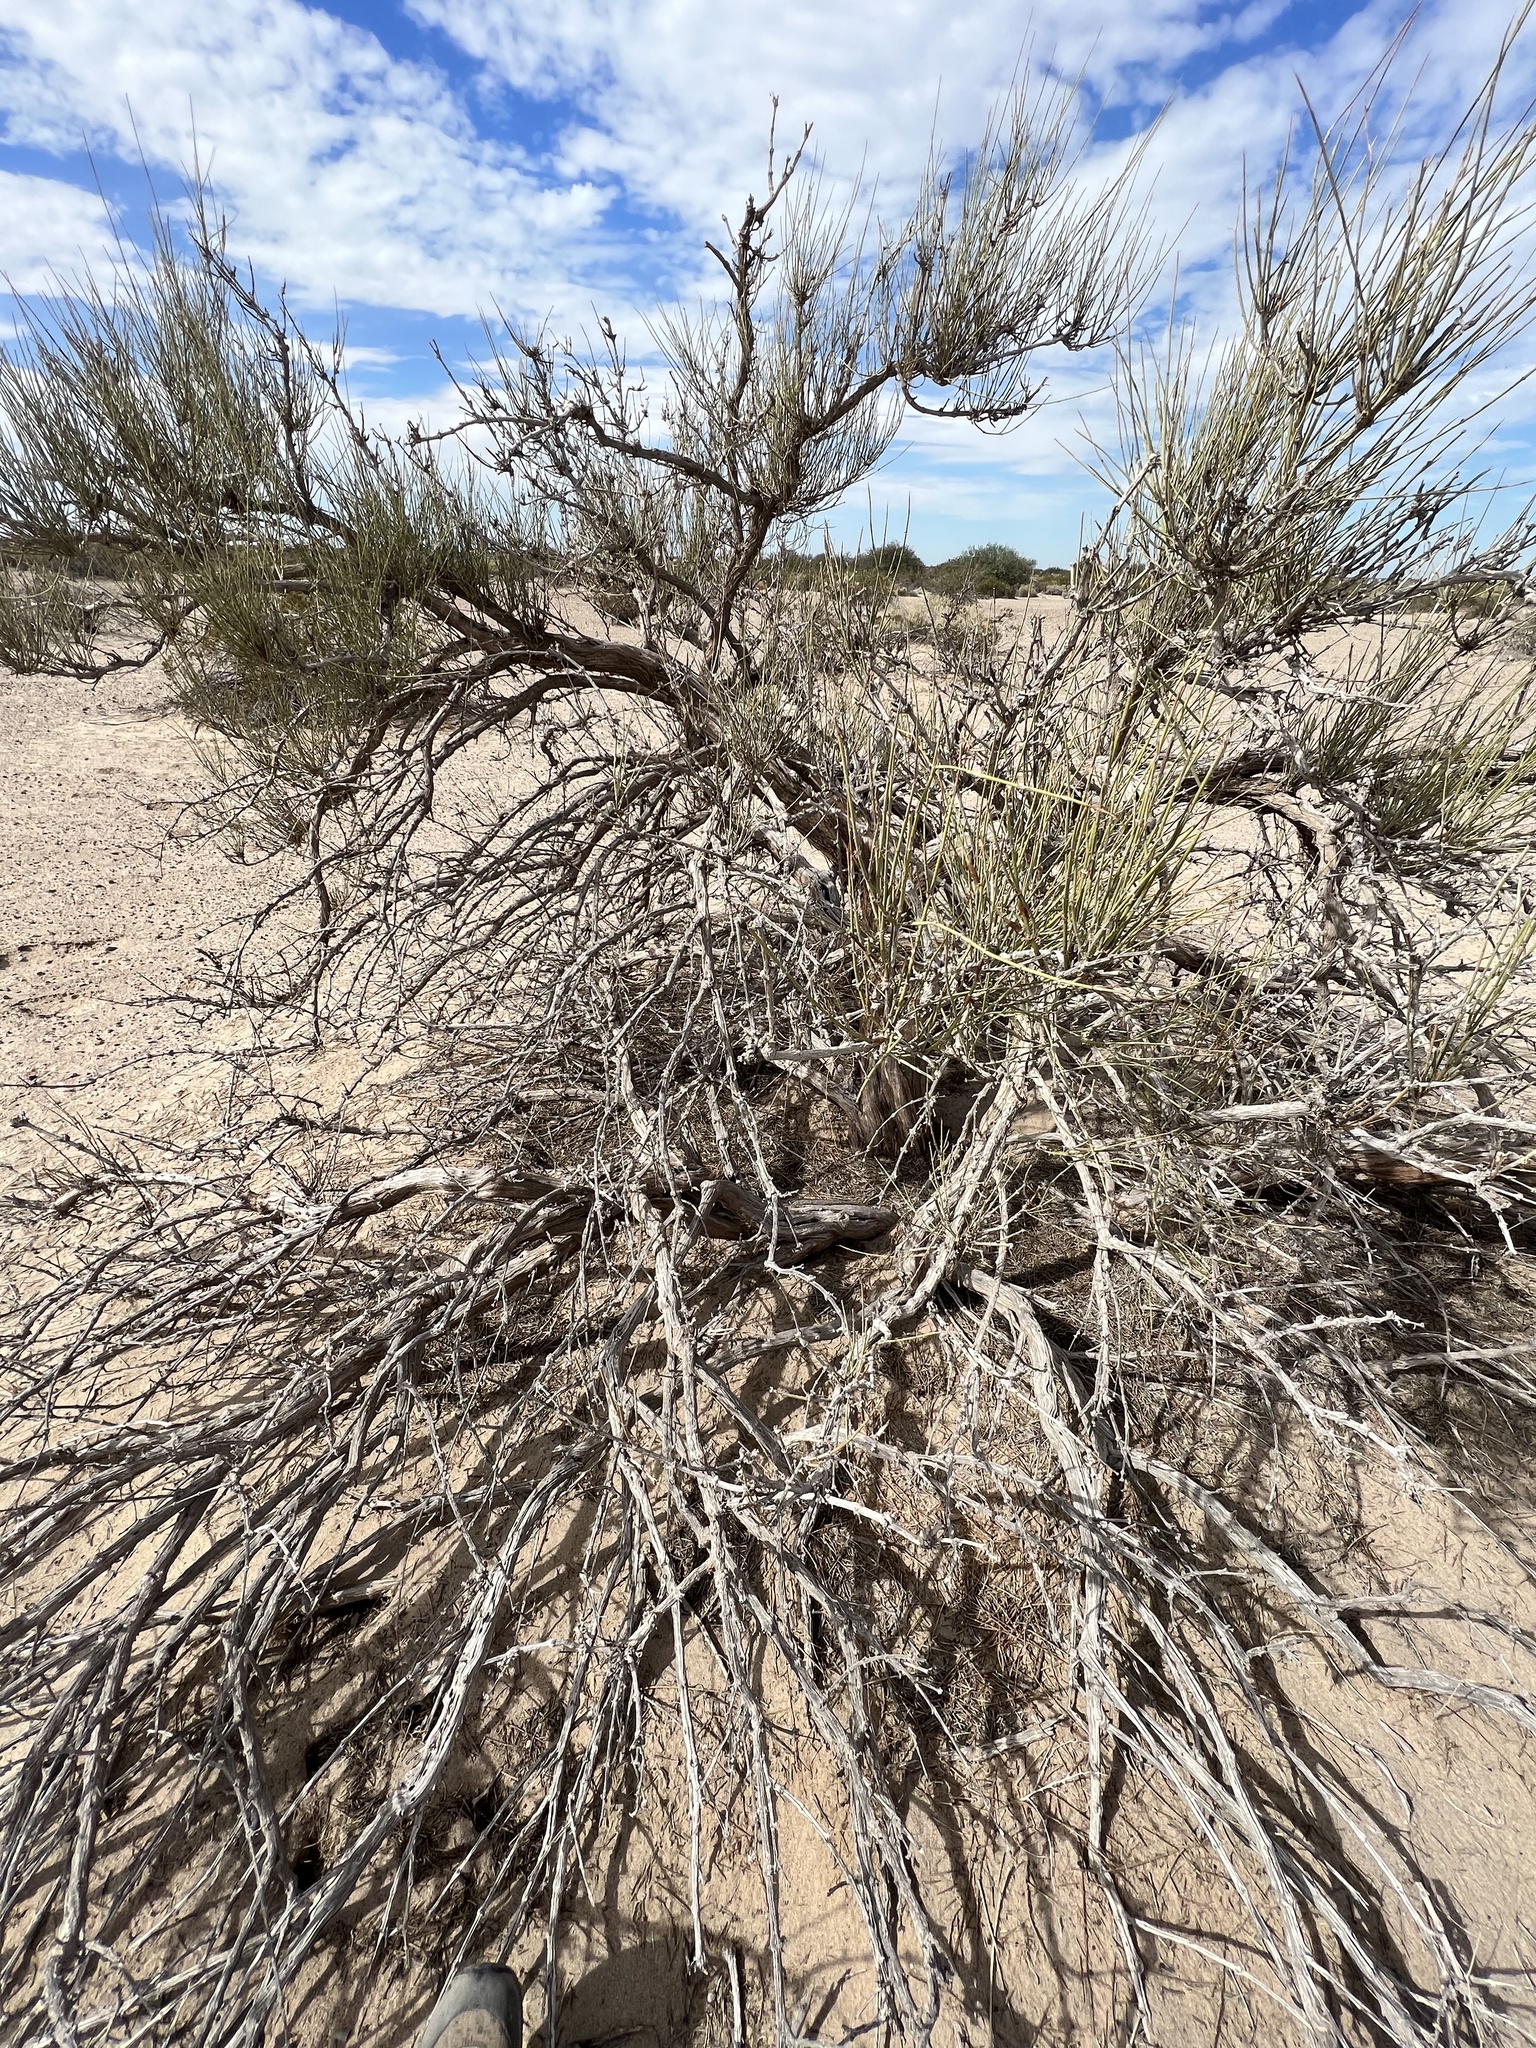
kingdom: Plantae
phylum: Tracheophyta
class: Gnetopsida
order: Ephedrales
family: Ephedraceae
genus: Ephedra
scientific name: Ephedra trifurca
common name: Mexican-tea
